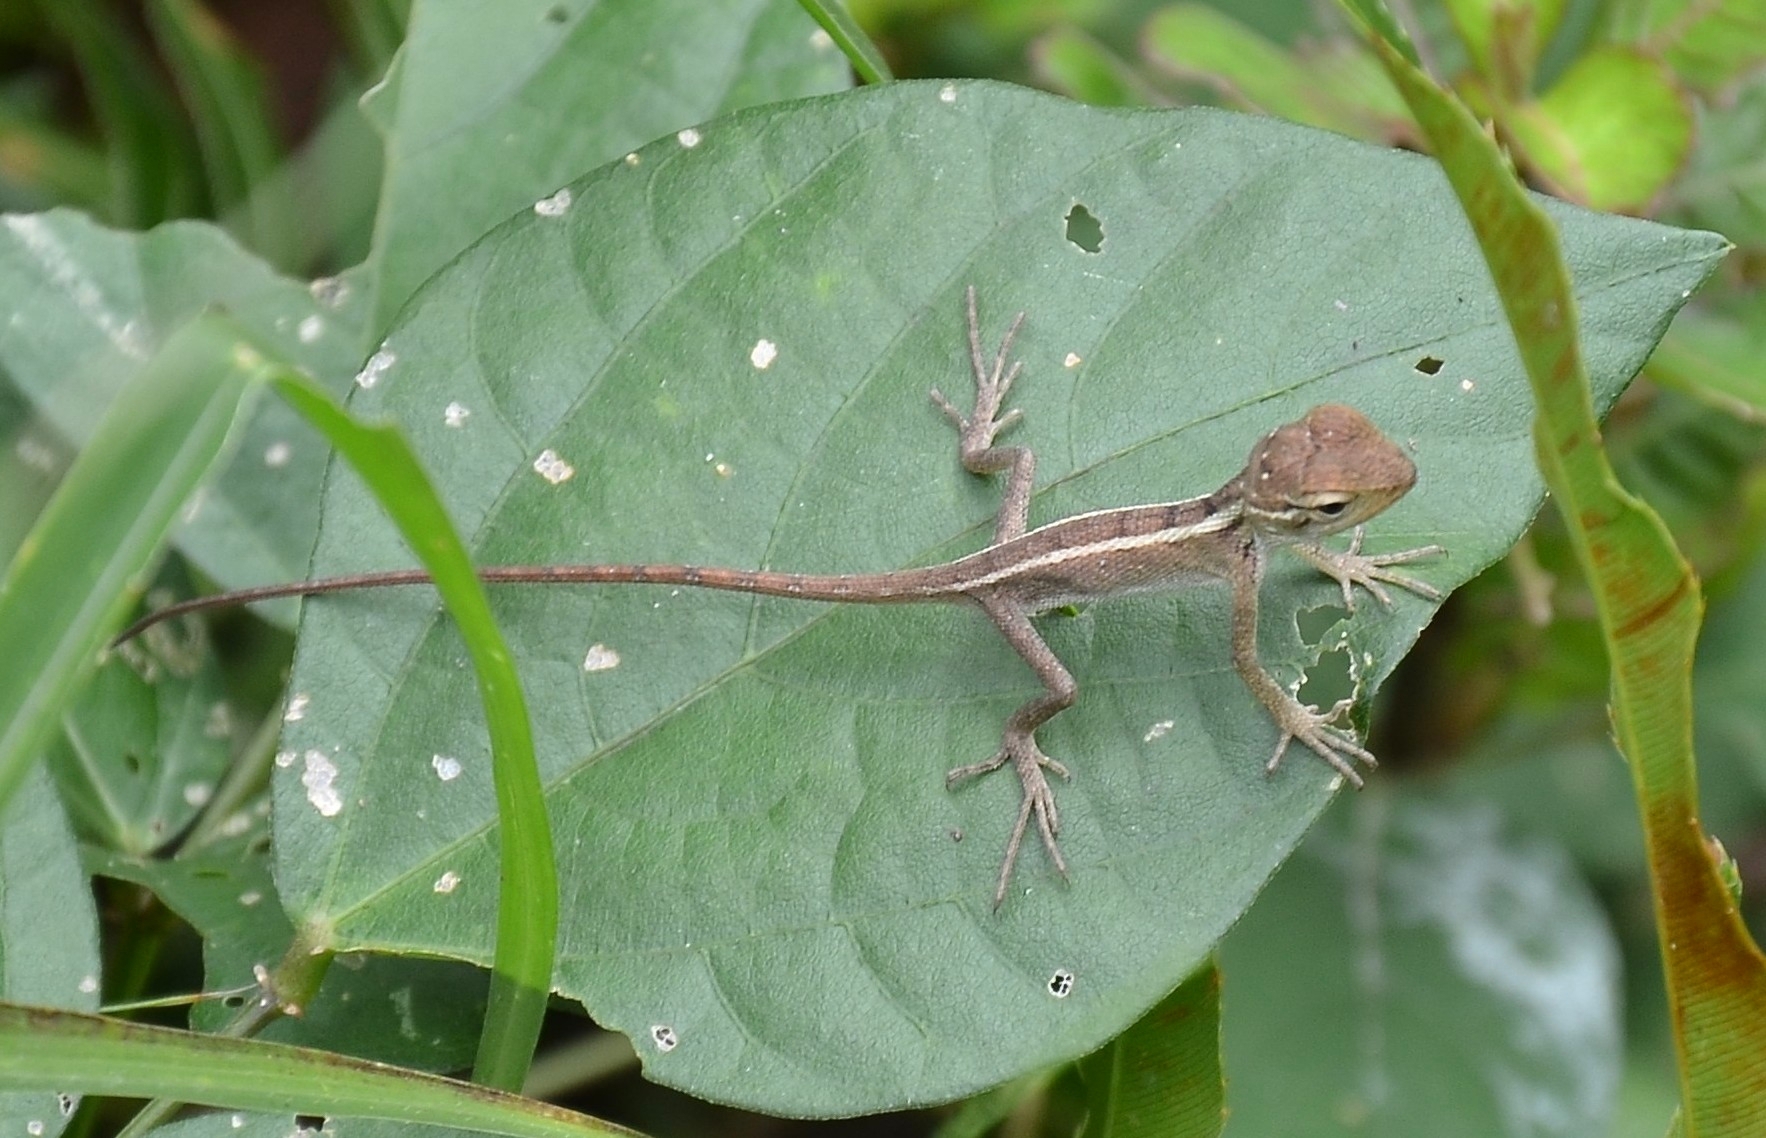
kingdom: Animalia
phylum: Chordata
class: Squamata
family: Agamidae
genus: Calotes
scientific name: Calotes versicolor
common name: Oriental garden lizard
